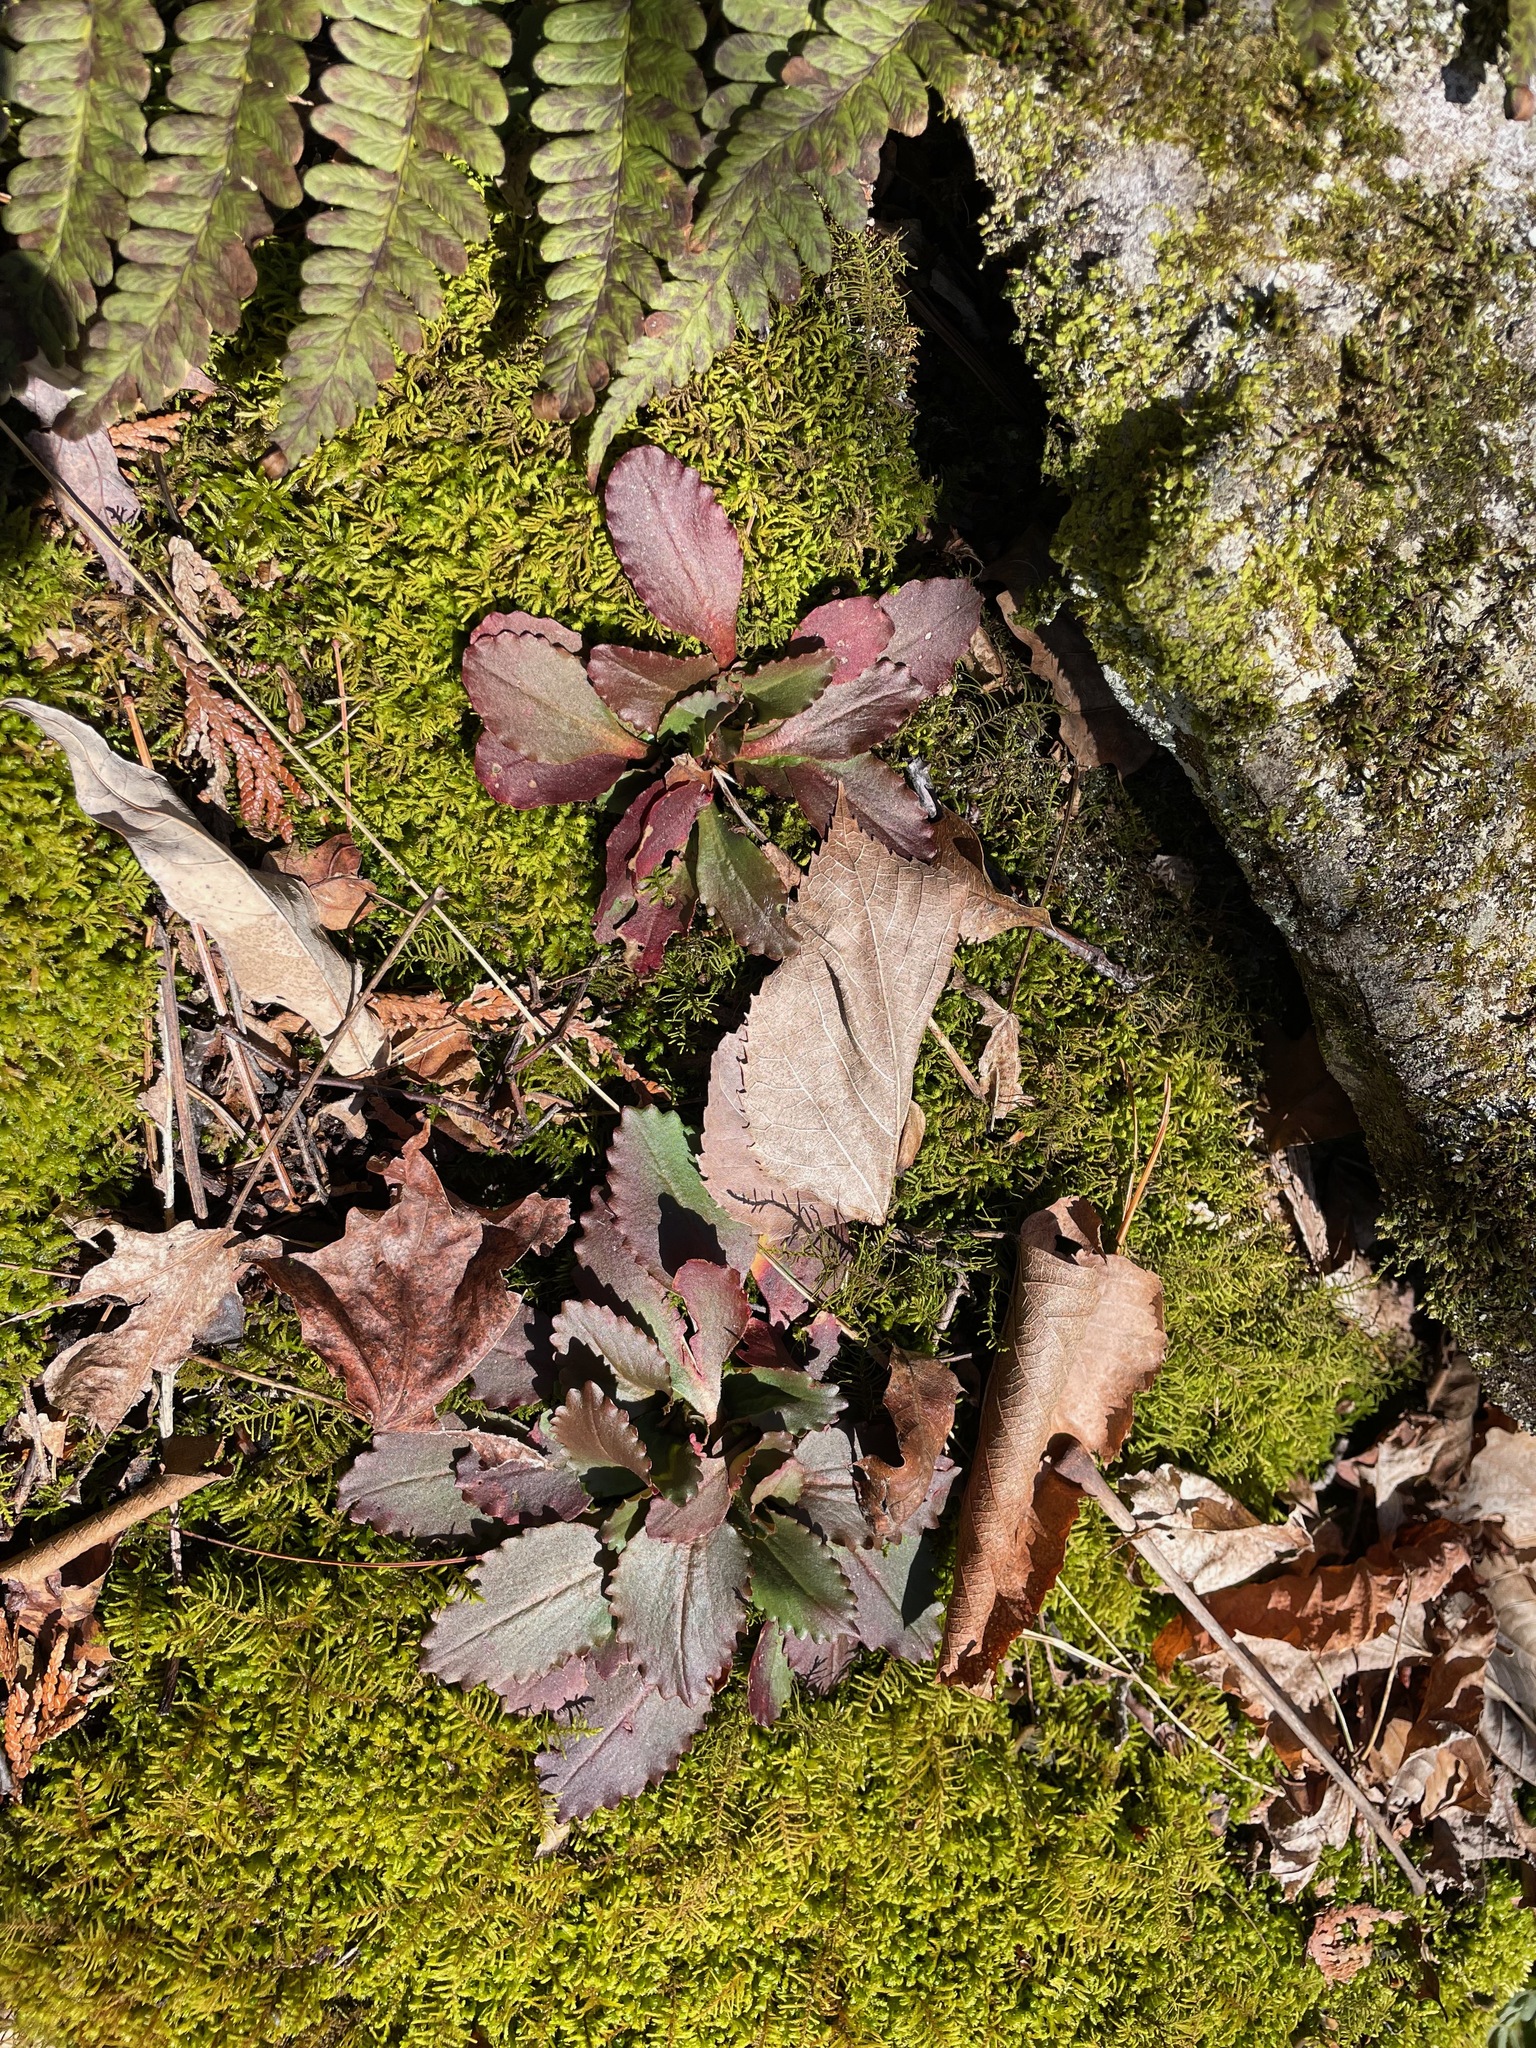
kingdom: Plantae
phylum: Tracheophyta
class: Magnoliopsida
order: Saxifragales
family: Saxifragaceae
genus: Micranthes
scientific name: Micranthes virginiensis
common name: Early saxifrage
